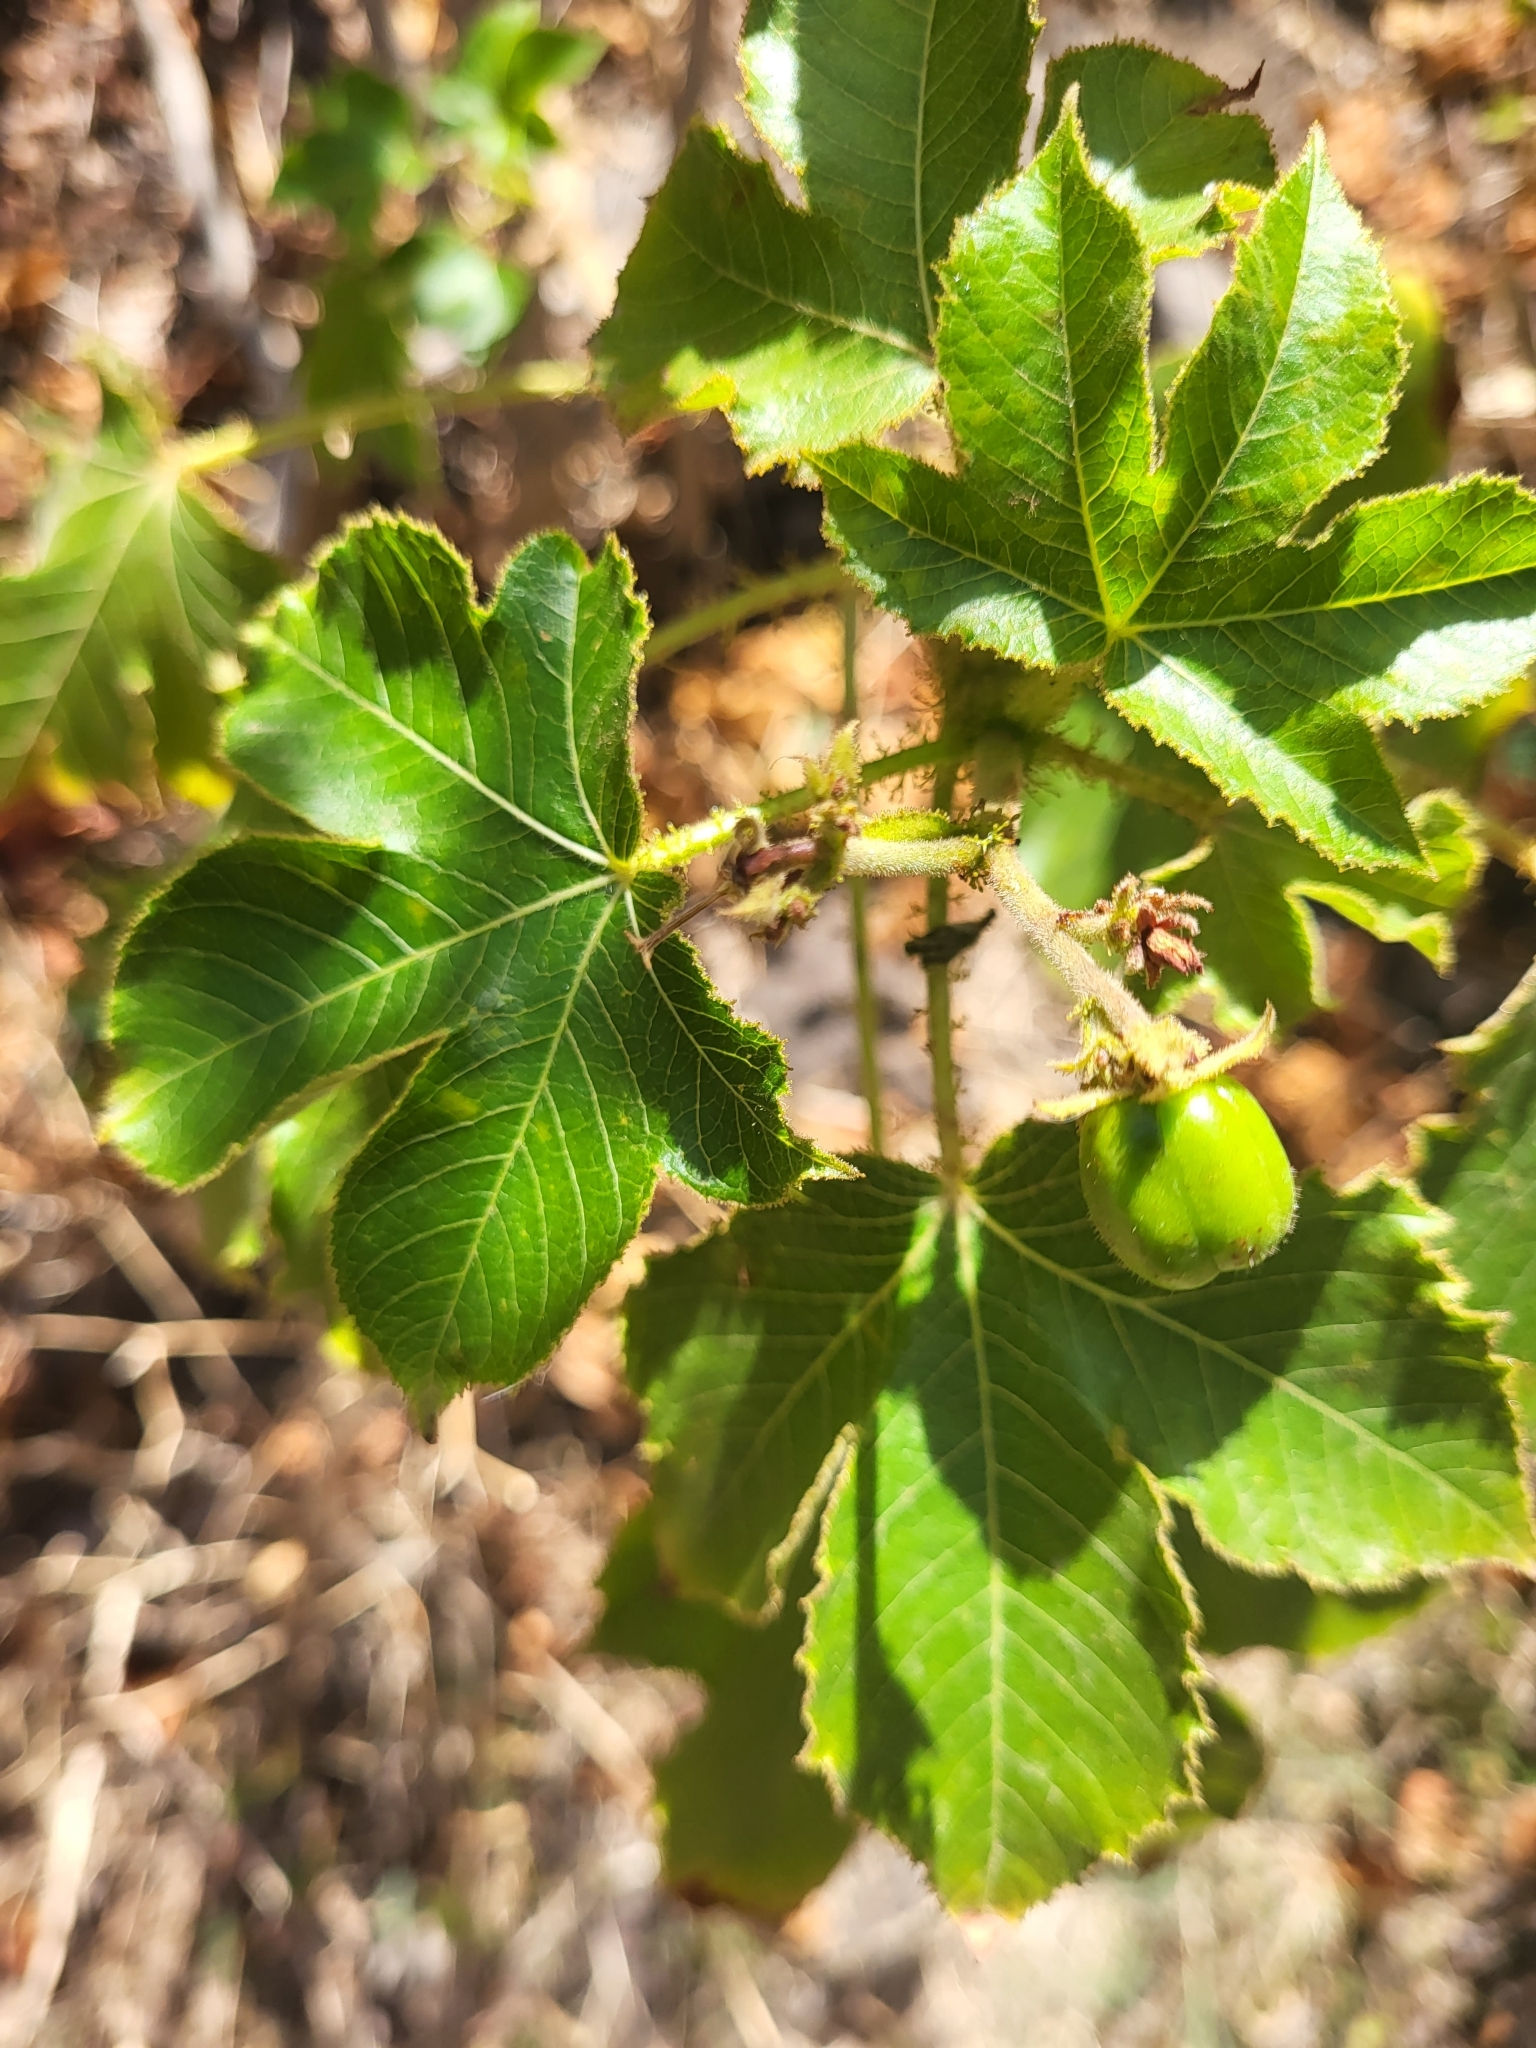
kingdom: Plantae
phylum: Tracheophyta
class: Magnoliopsida
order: Malpighiales
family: Euphorbiaceae
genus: Jatropha
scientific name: Jatropha gossypiifolia
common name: Bellyache bush
